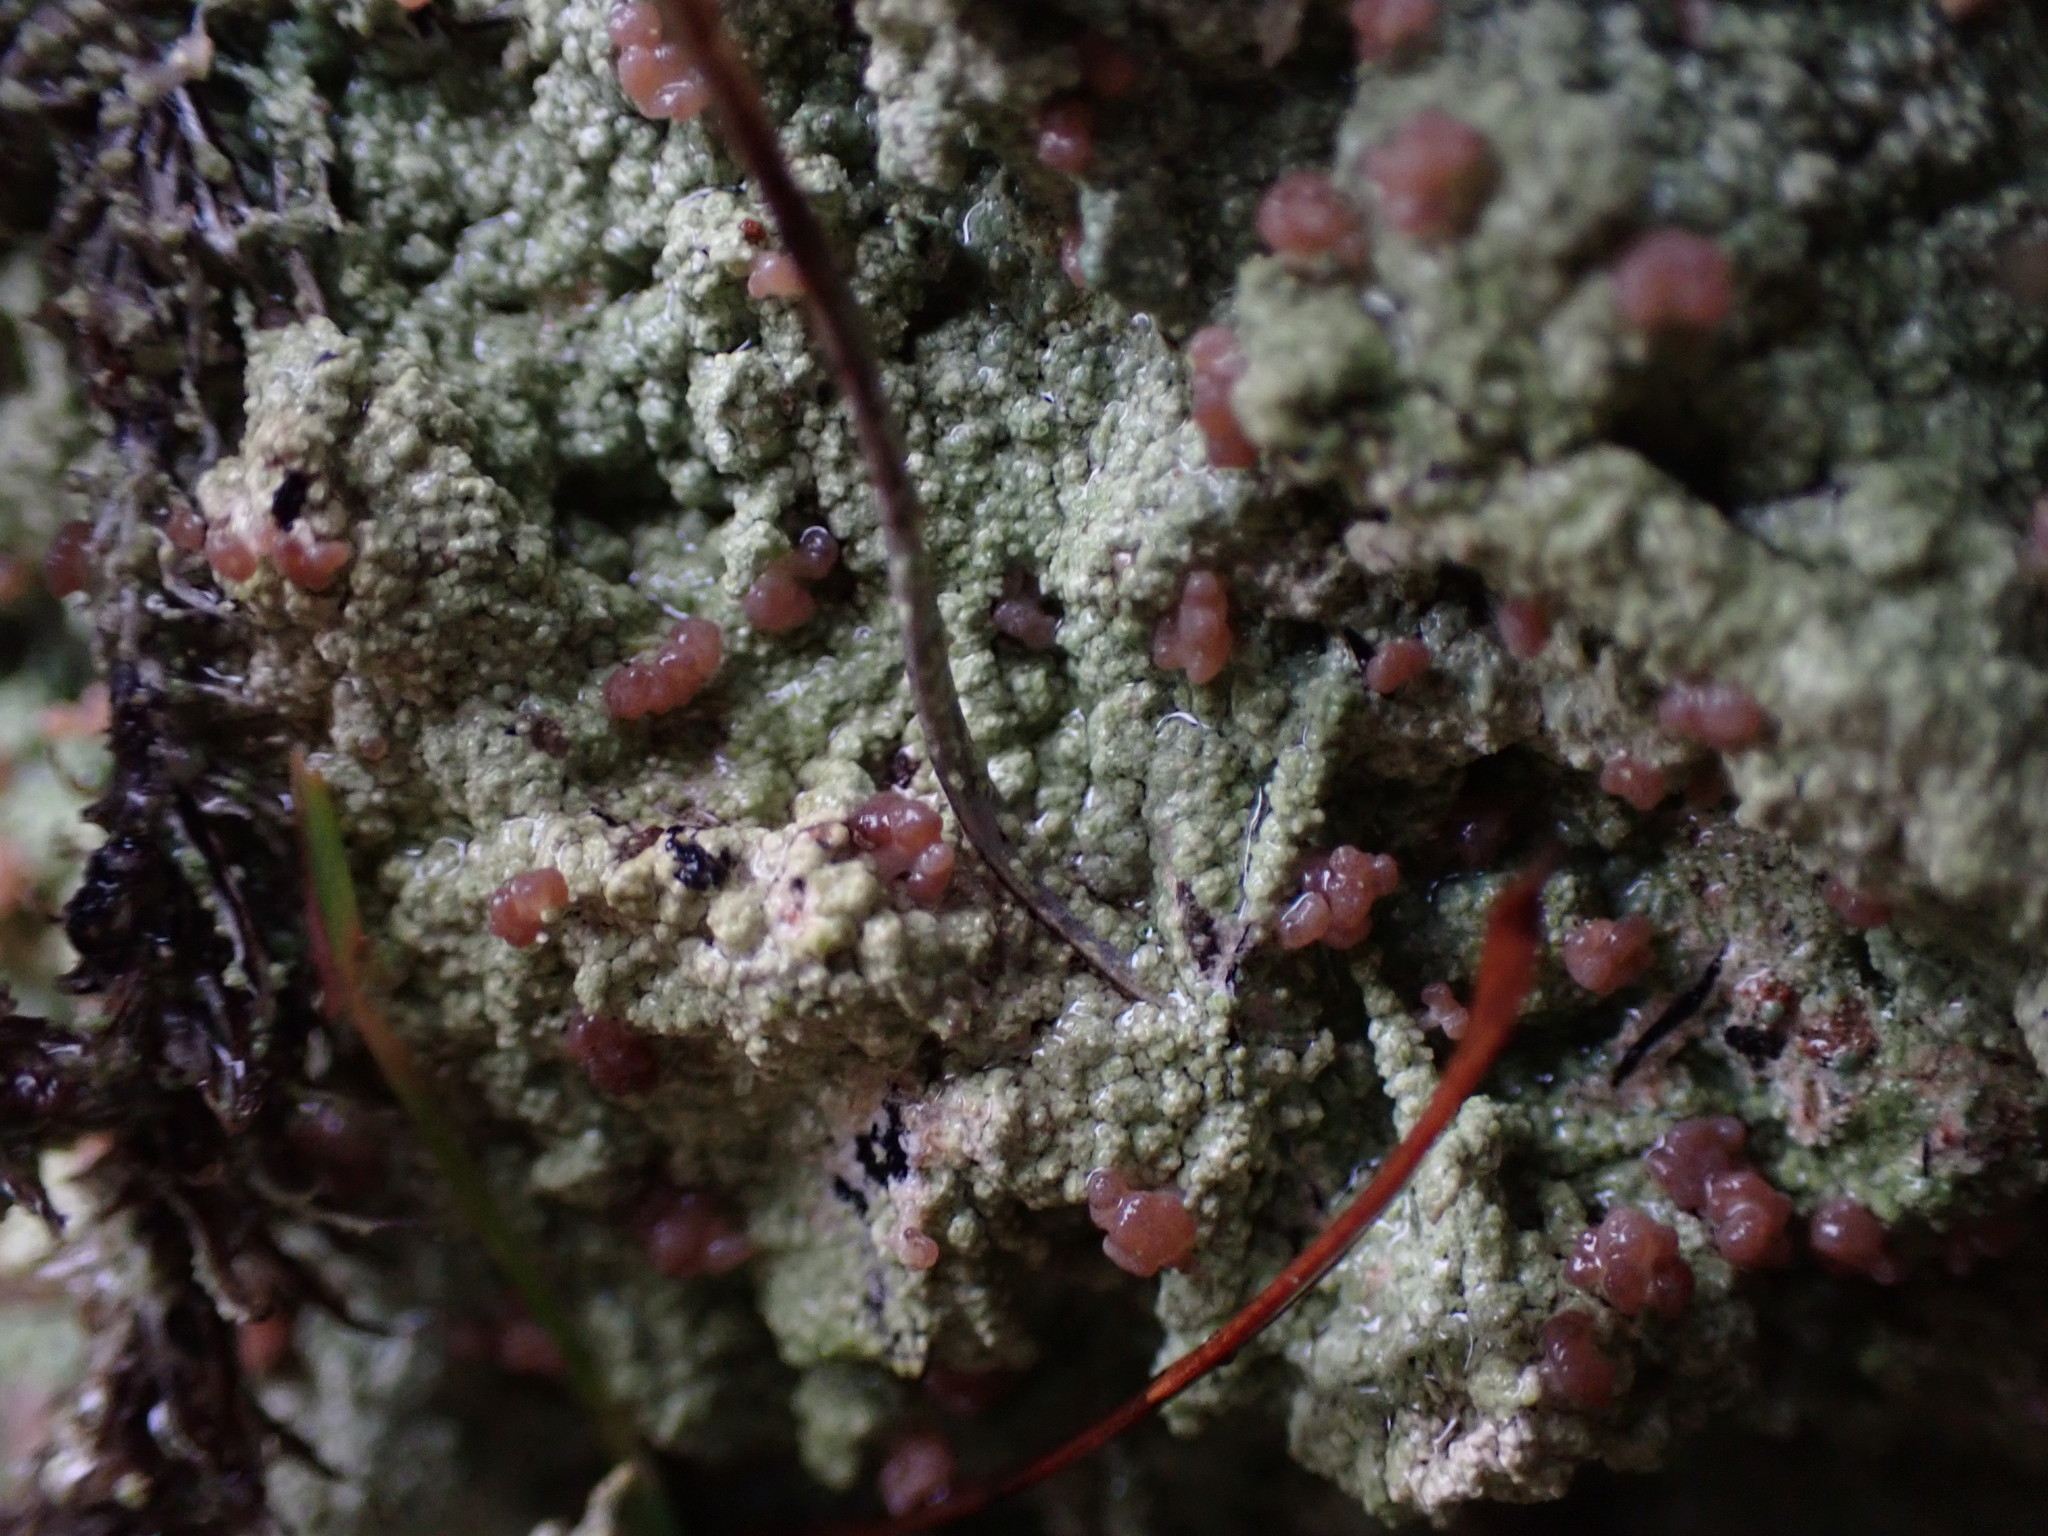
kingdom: Fungi
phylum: Ascomycota
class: Lecanoromycetes
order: Baeomycetales
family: Baeomycetaceae
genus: Baeomyces
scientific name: Baeomyces rufus
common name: Brown beret lichen
